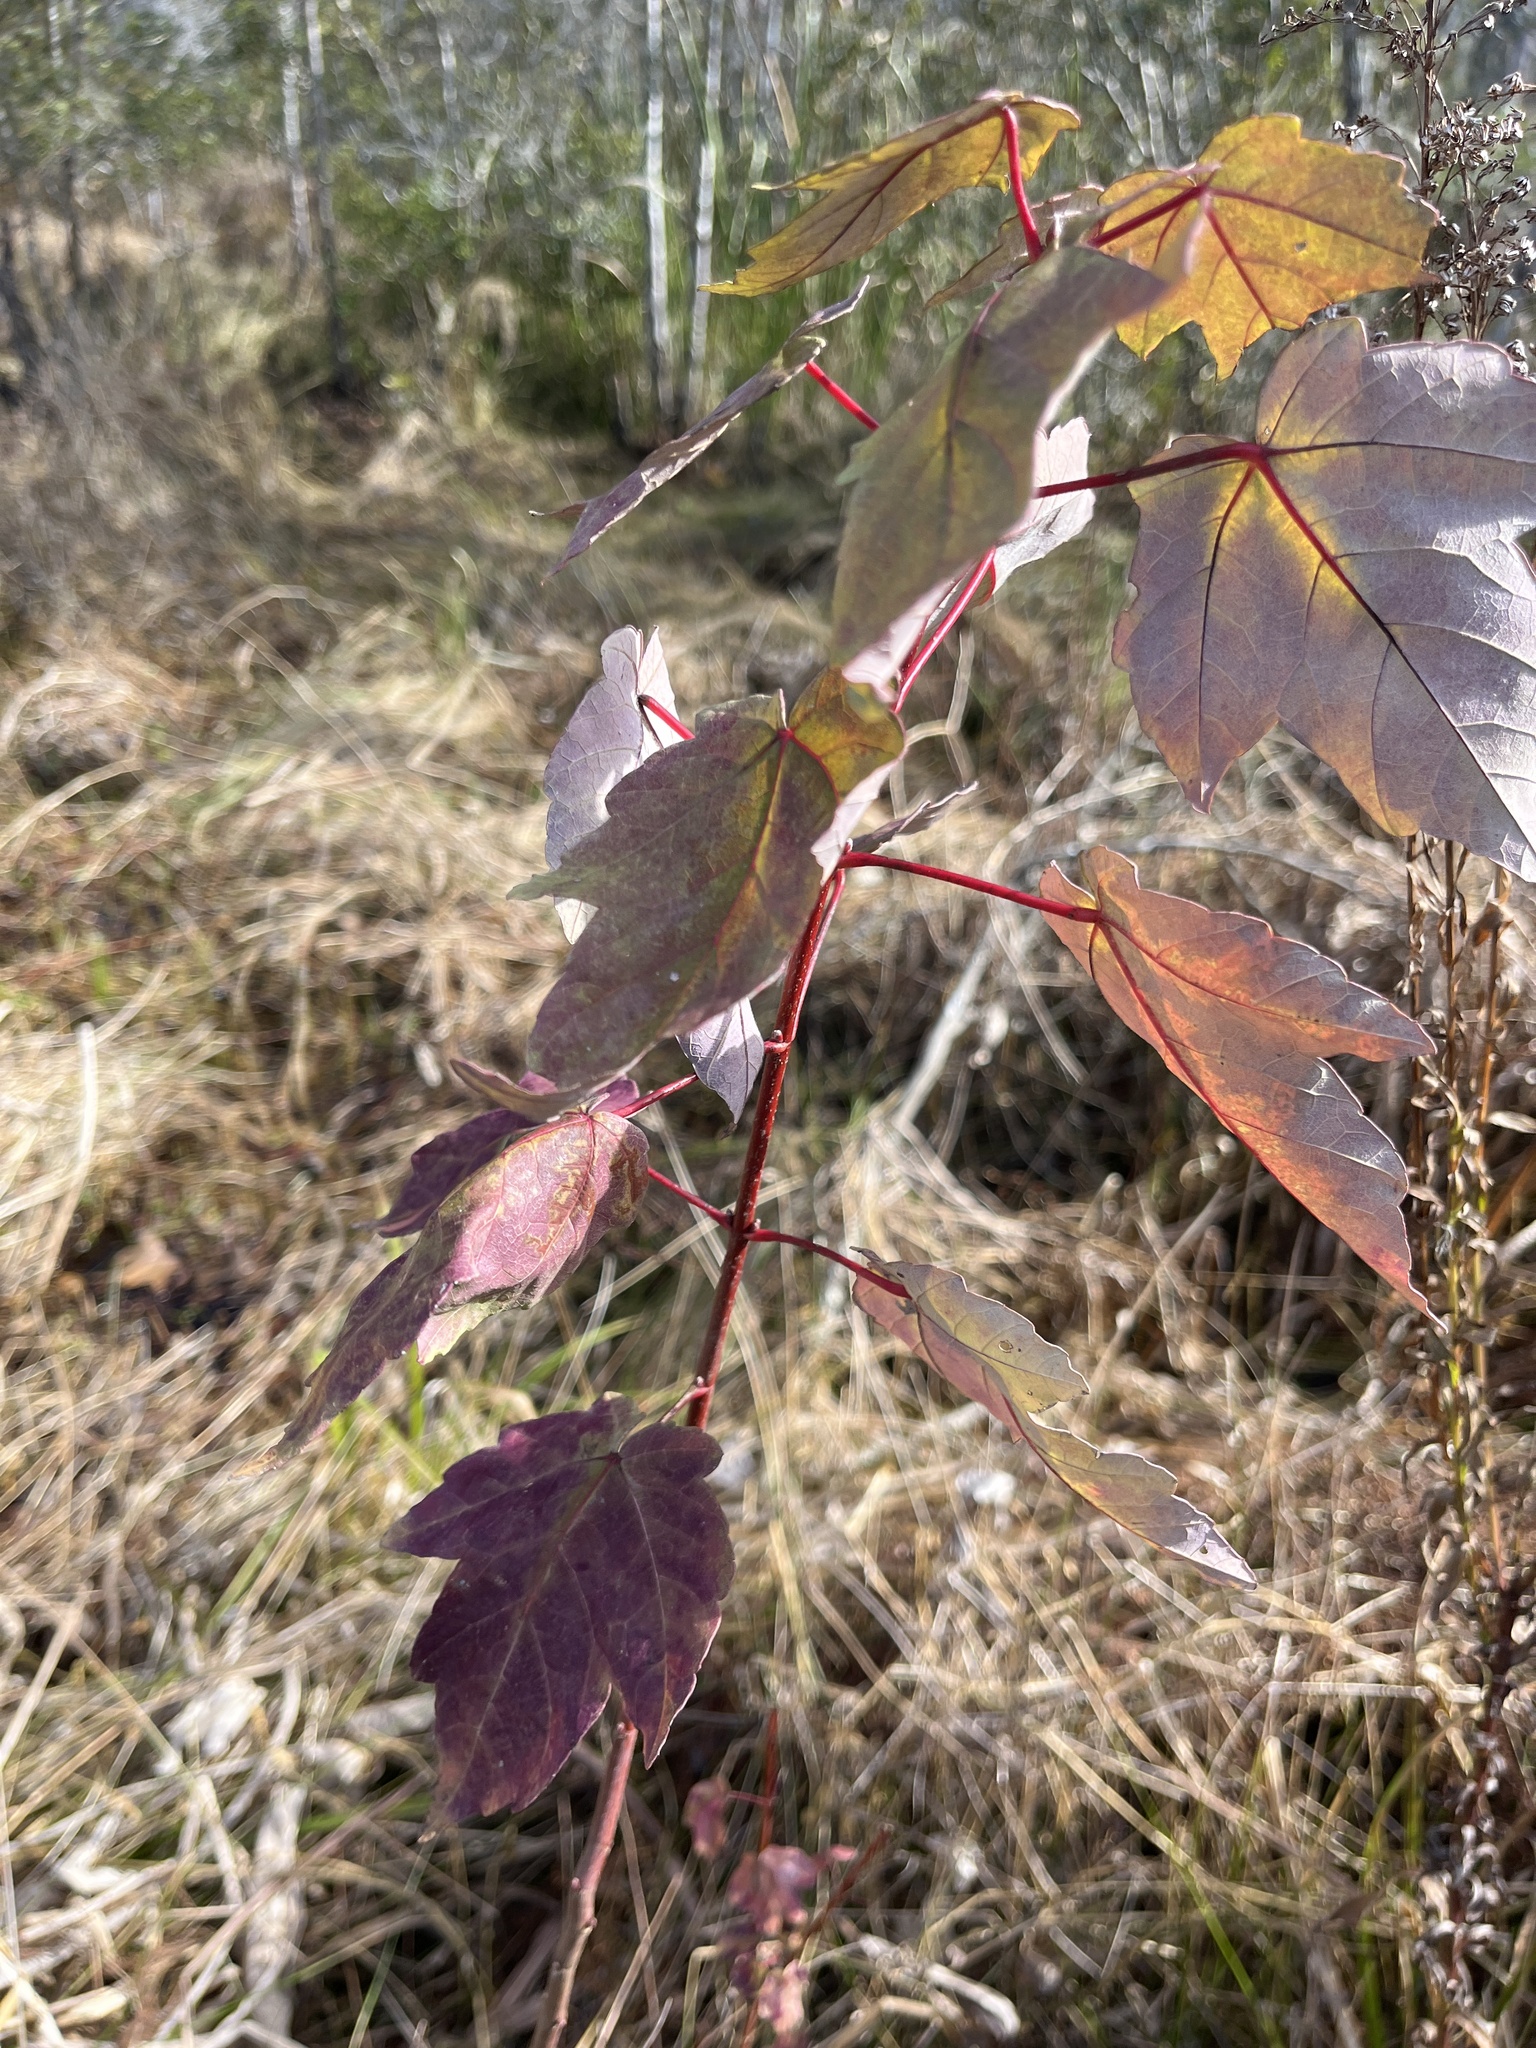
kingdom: Plantae
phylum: Tracheophyta
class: Magnoliopsida
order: Sapindales
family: Sapindaceae
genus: Acer
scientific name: Acer rubrum
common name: Red maple
